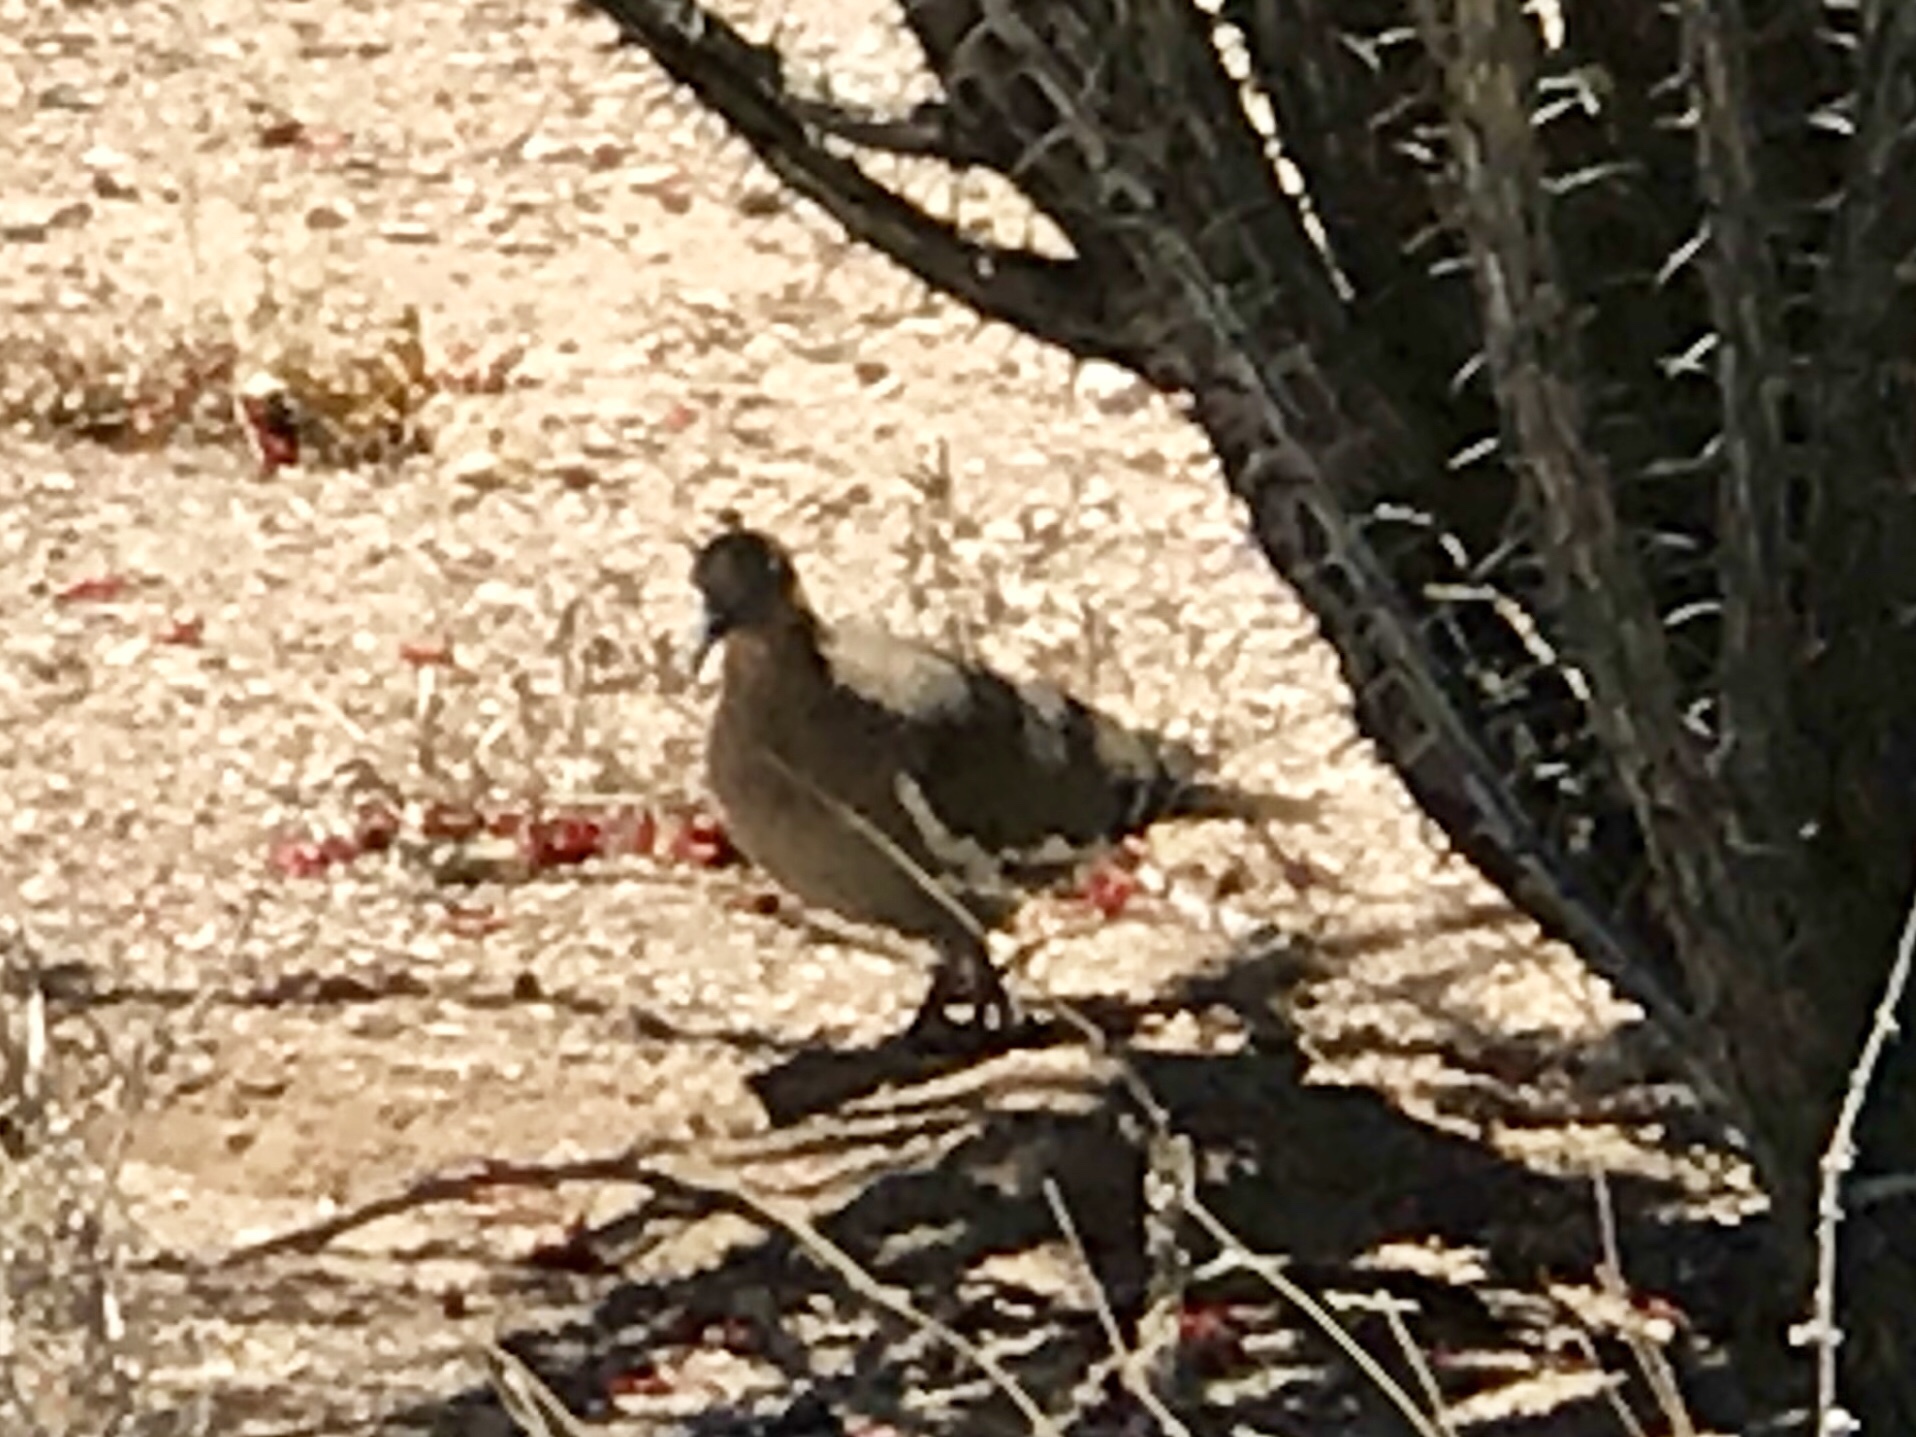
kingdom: Animalia
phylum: Chordata
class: Aves
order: Columbiformes
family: Columbidae
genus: Zenaida
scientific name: Zenaida asiatica
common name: White-winged dove
